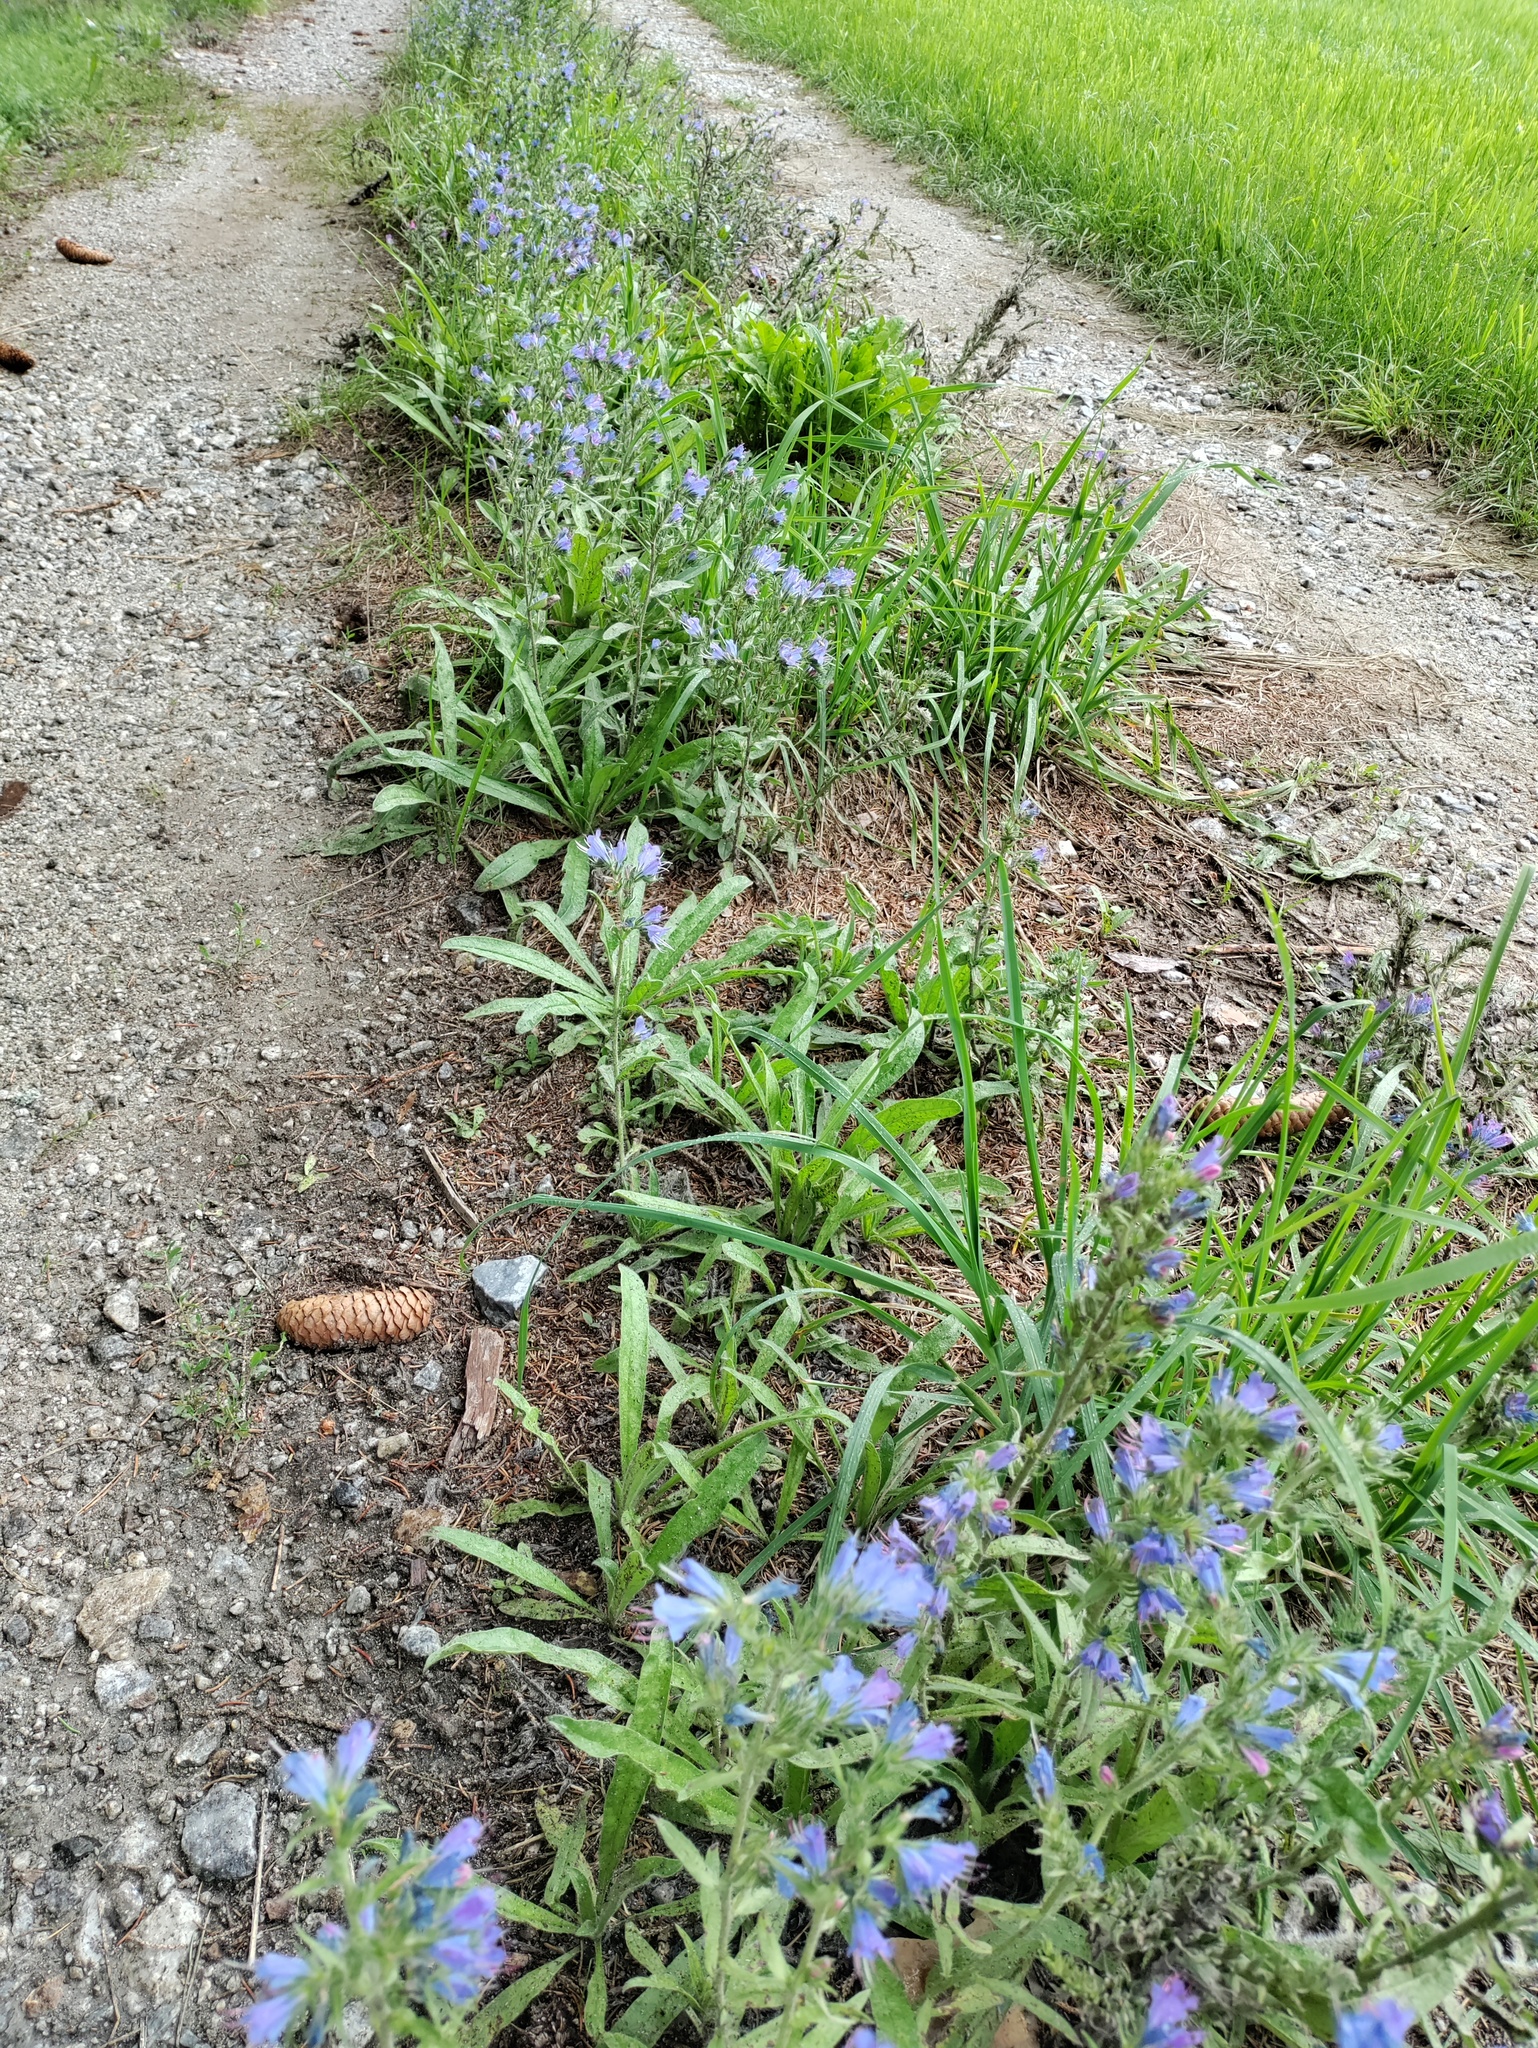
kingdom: Plantae
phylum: Tracheophyta
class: Magnoliopsida
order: Boraginales
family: Boraginaceae
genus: Echium
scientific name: Echium vulgare
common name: Common viper's bugloss
